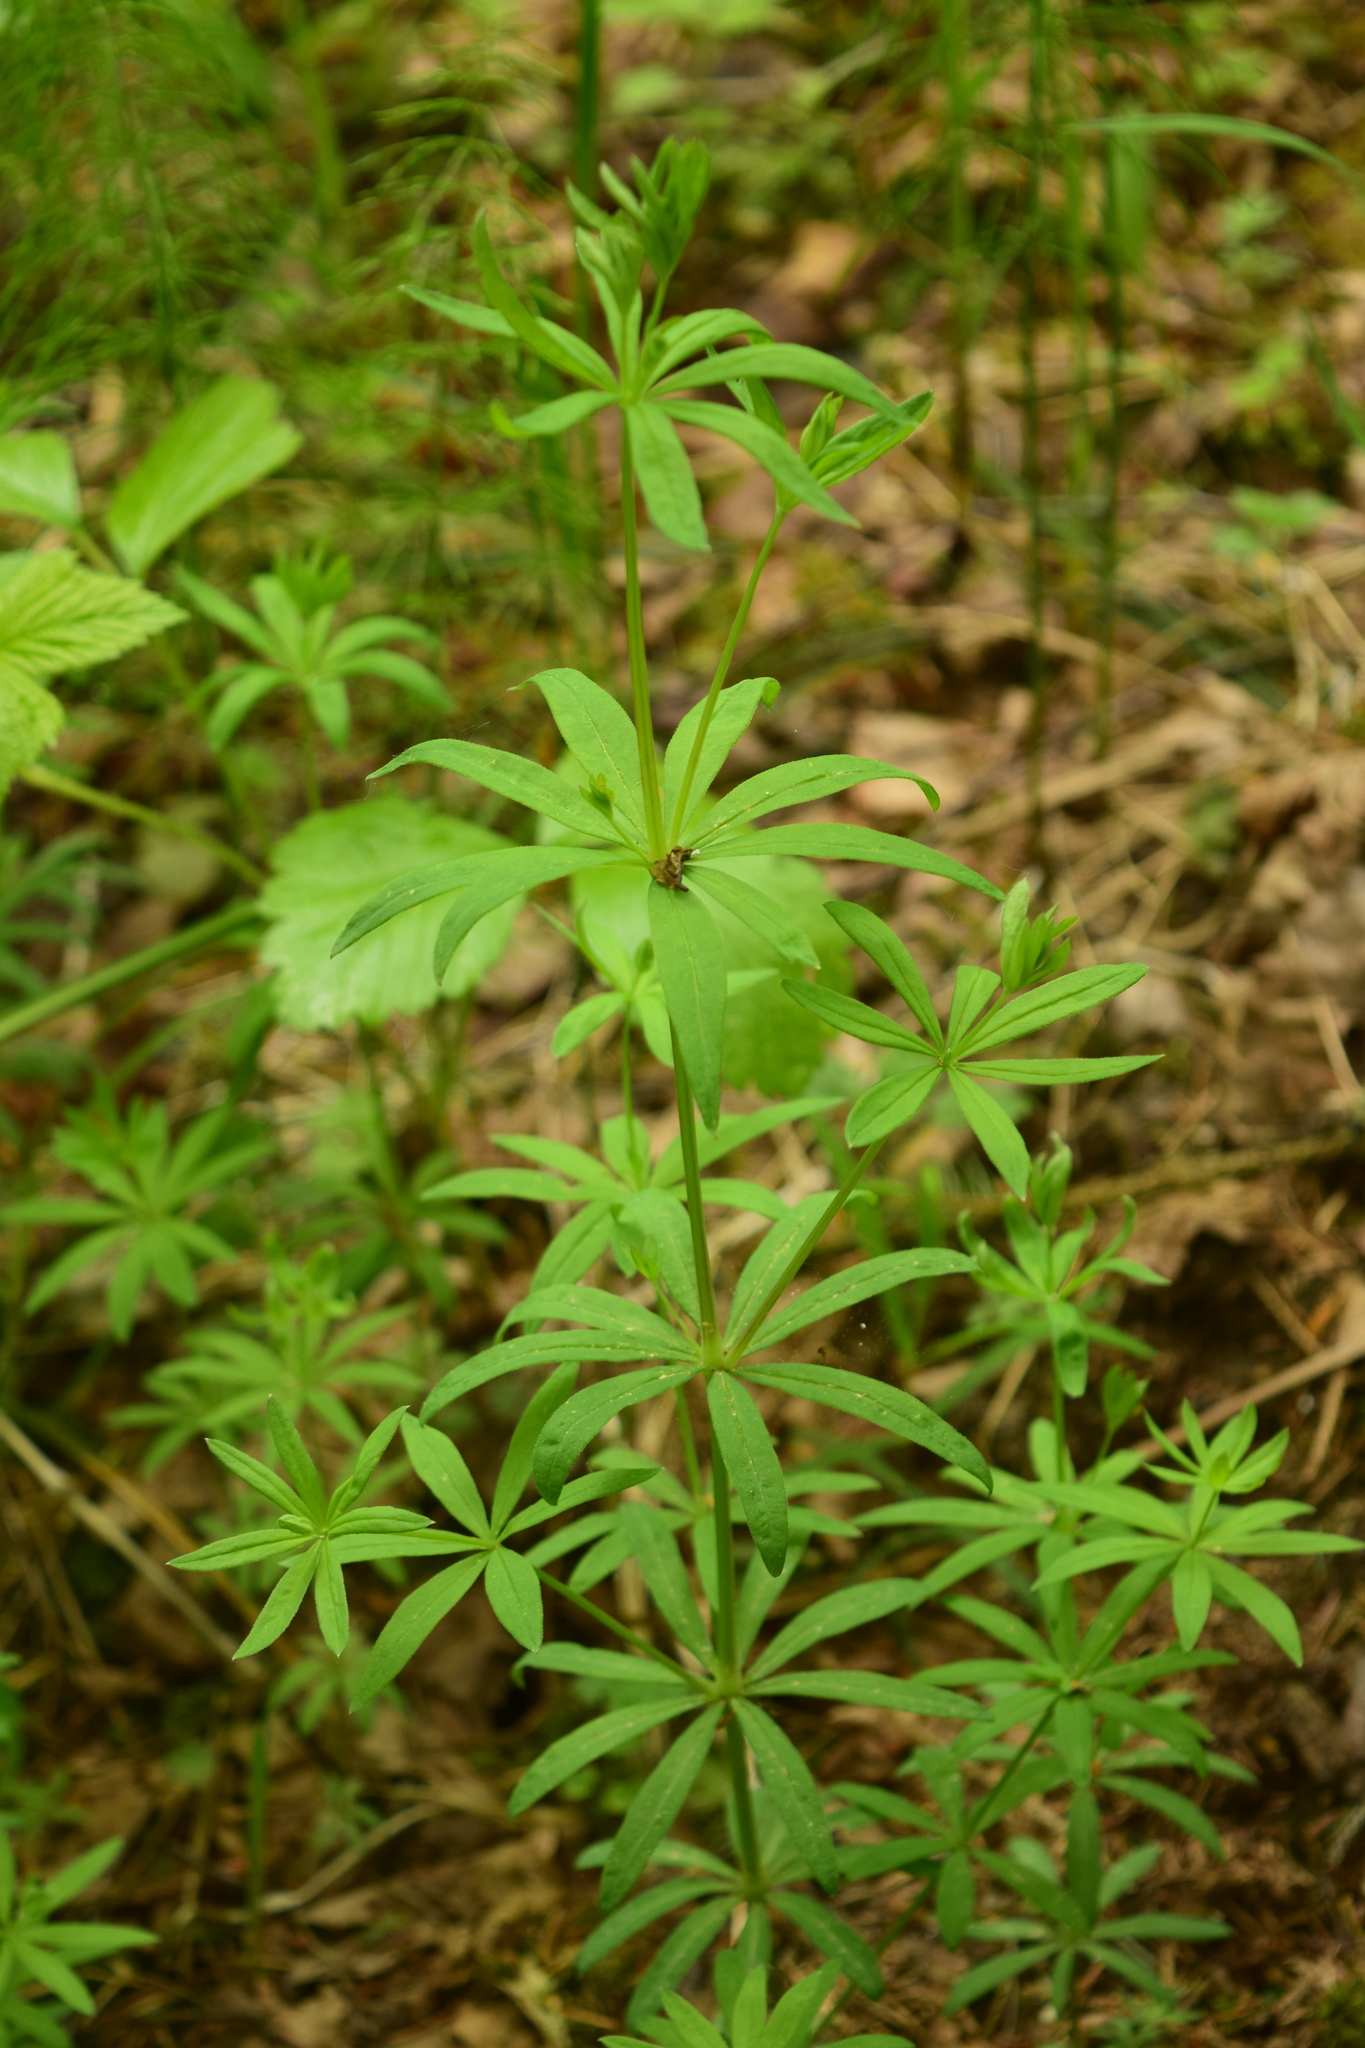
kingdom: Plantae
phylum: Tracheophyta
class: Magnoliopsida
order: Gentianales
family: Rubiaceae
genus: Galium
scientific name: Galium intermedium
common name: Bedstraw
